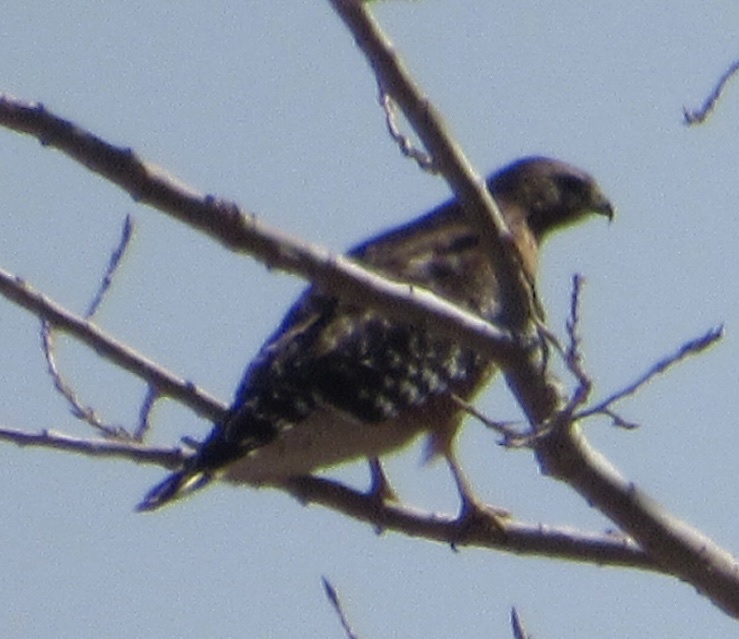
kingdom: Animalia
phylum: Chordata
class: Aves
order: Accipitriformes
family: Accipitridae
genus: Buteo
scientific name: Buteo lineatus
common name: Red-shouldered hawk
